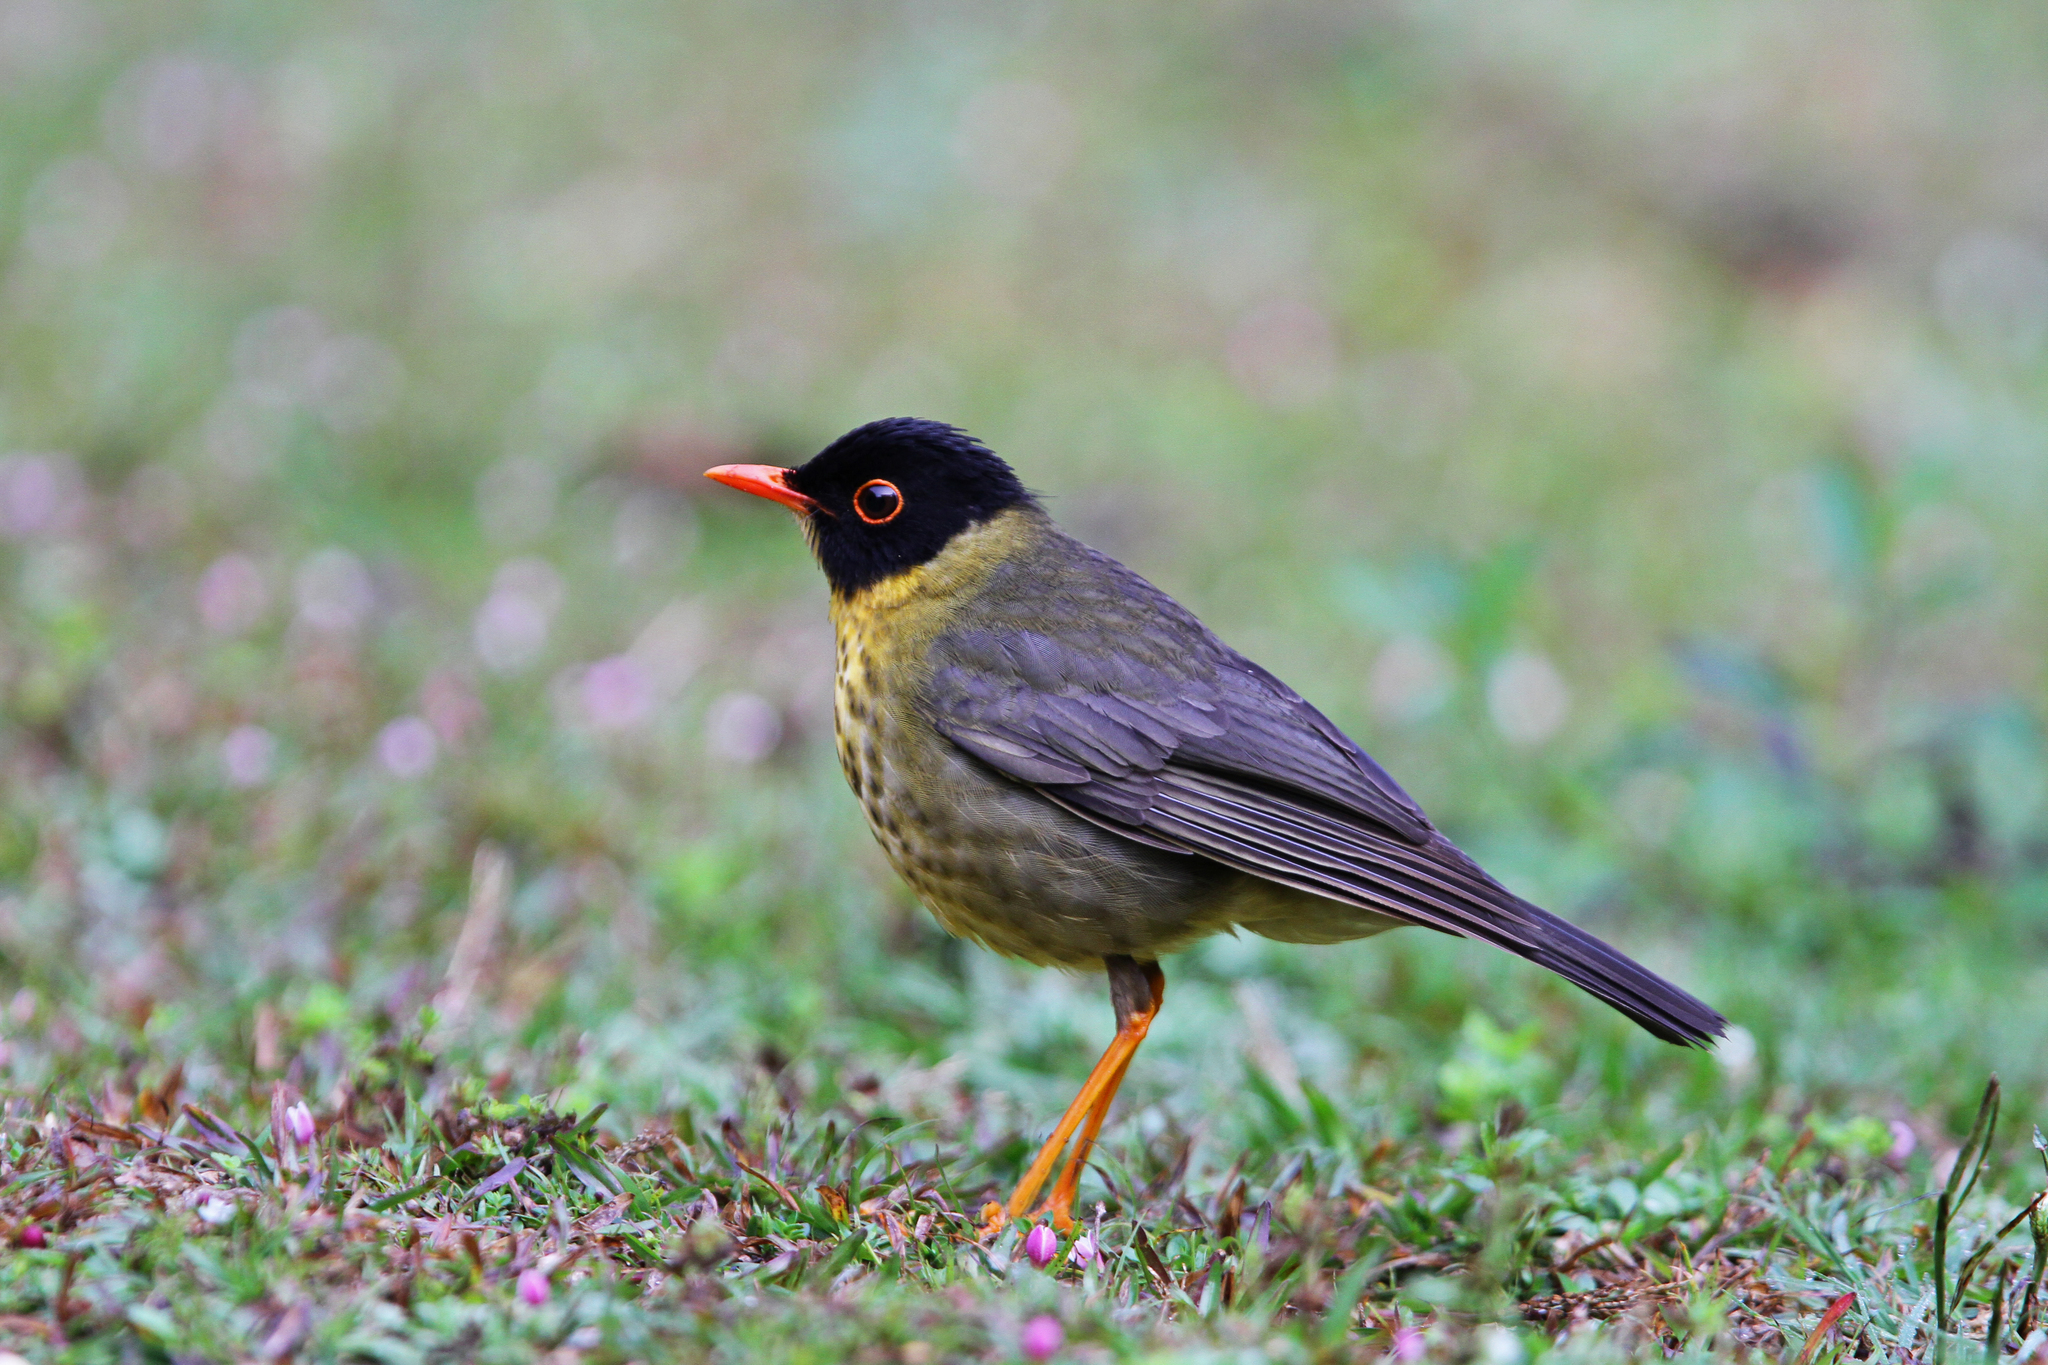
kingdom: Animalia
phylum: Chordata
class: Aves
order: Passeriformes
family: Turdidae
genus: Catharus
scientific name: Catharus dryas
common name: Spotted nightingale-thrush
